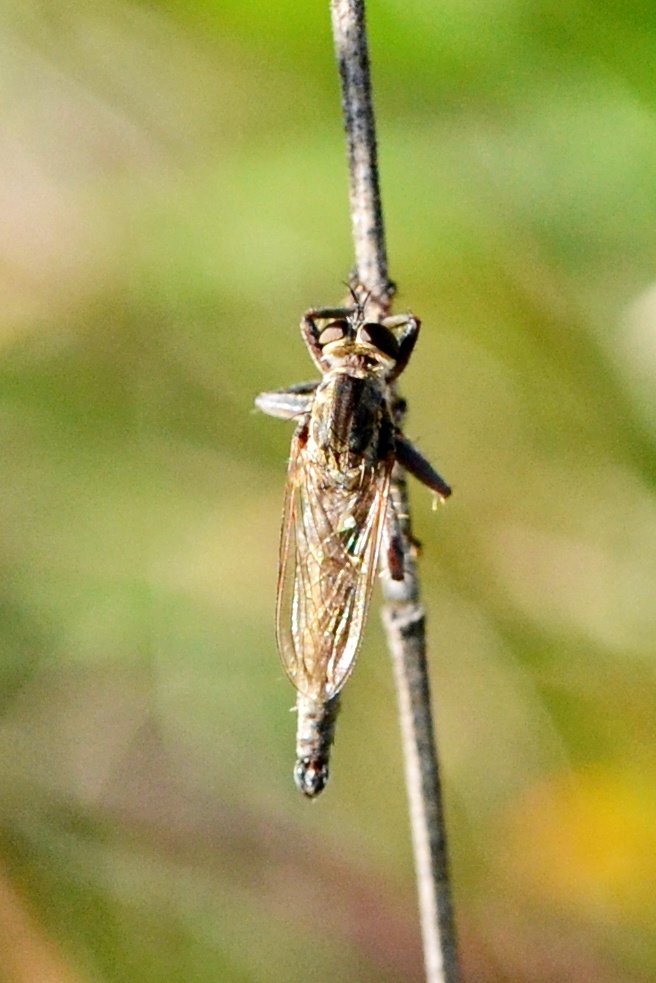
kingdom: Animalia
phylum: Arthropoda
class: Insecta
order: Diptera
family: Asilidae
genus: Machimus
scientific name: Machimus atricapillus
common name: Kite-tailed robberfly
